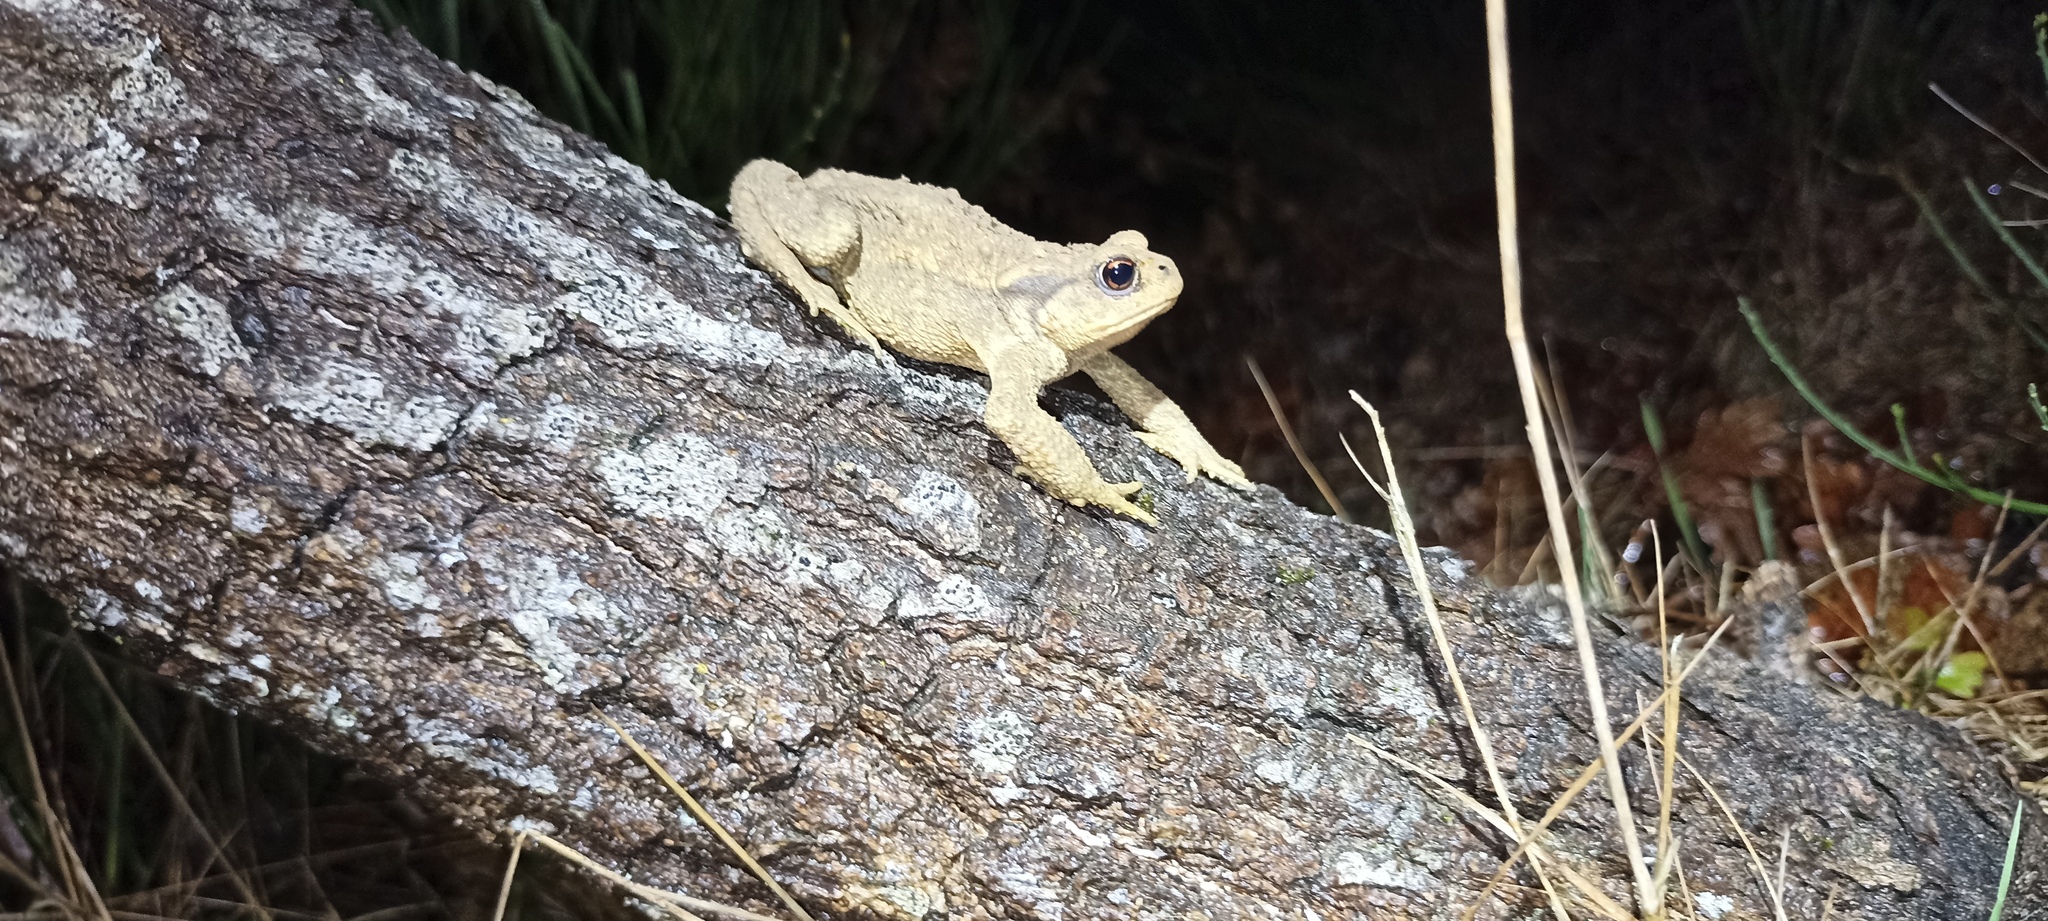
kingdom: Animalia
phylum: Chordata
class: Amphibia
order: Anura
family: Bufonidae
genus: Bufo
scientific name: Bufo spinosus
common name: Western common toad
